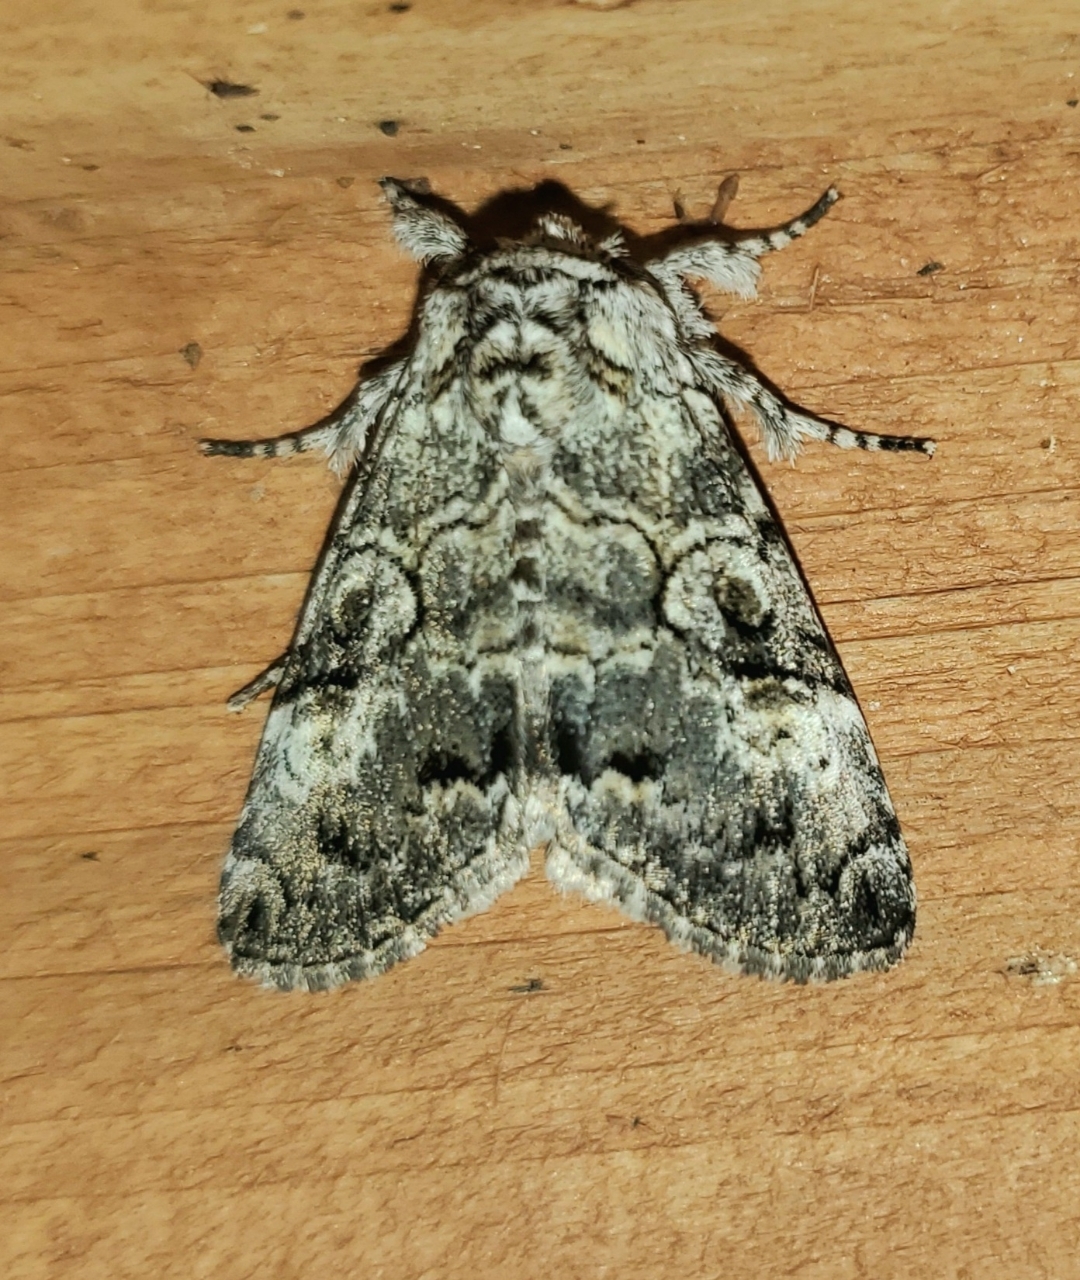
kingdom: Animalia
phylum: Arthropoda
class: Insecta
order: Lepidoptera
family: Noctuidae
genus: Charadra
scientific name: Charadra deridens
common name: Marbled tuffet
